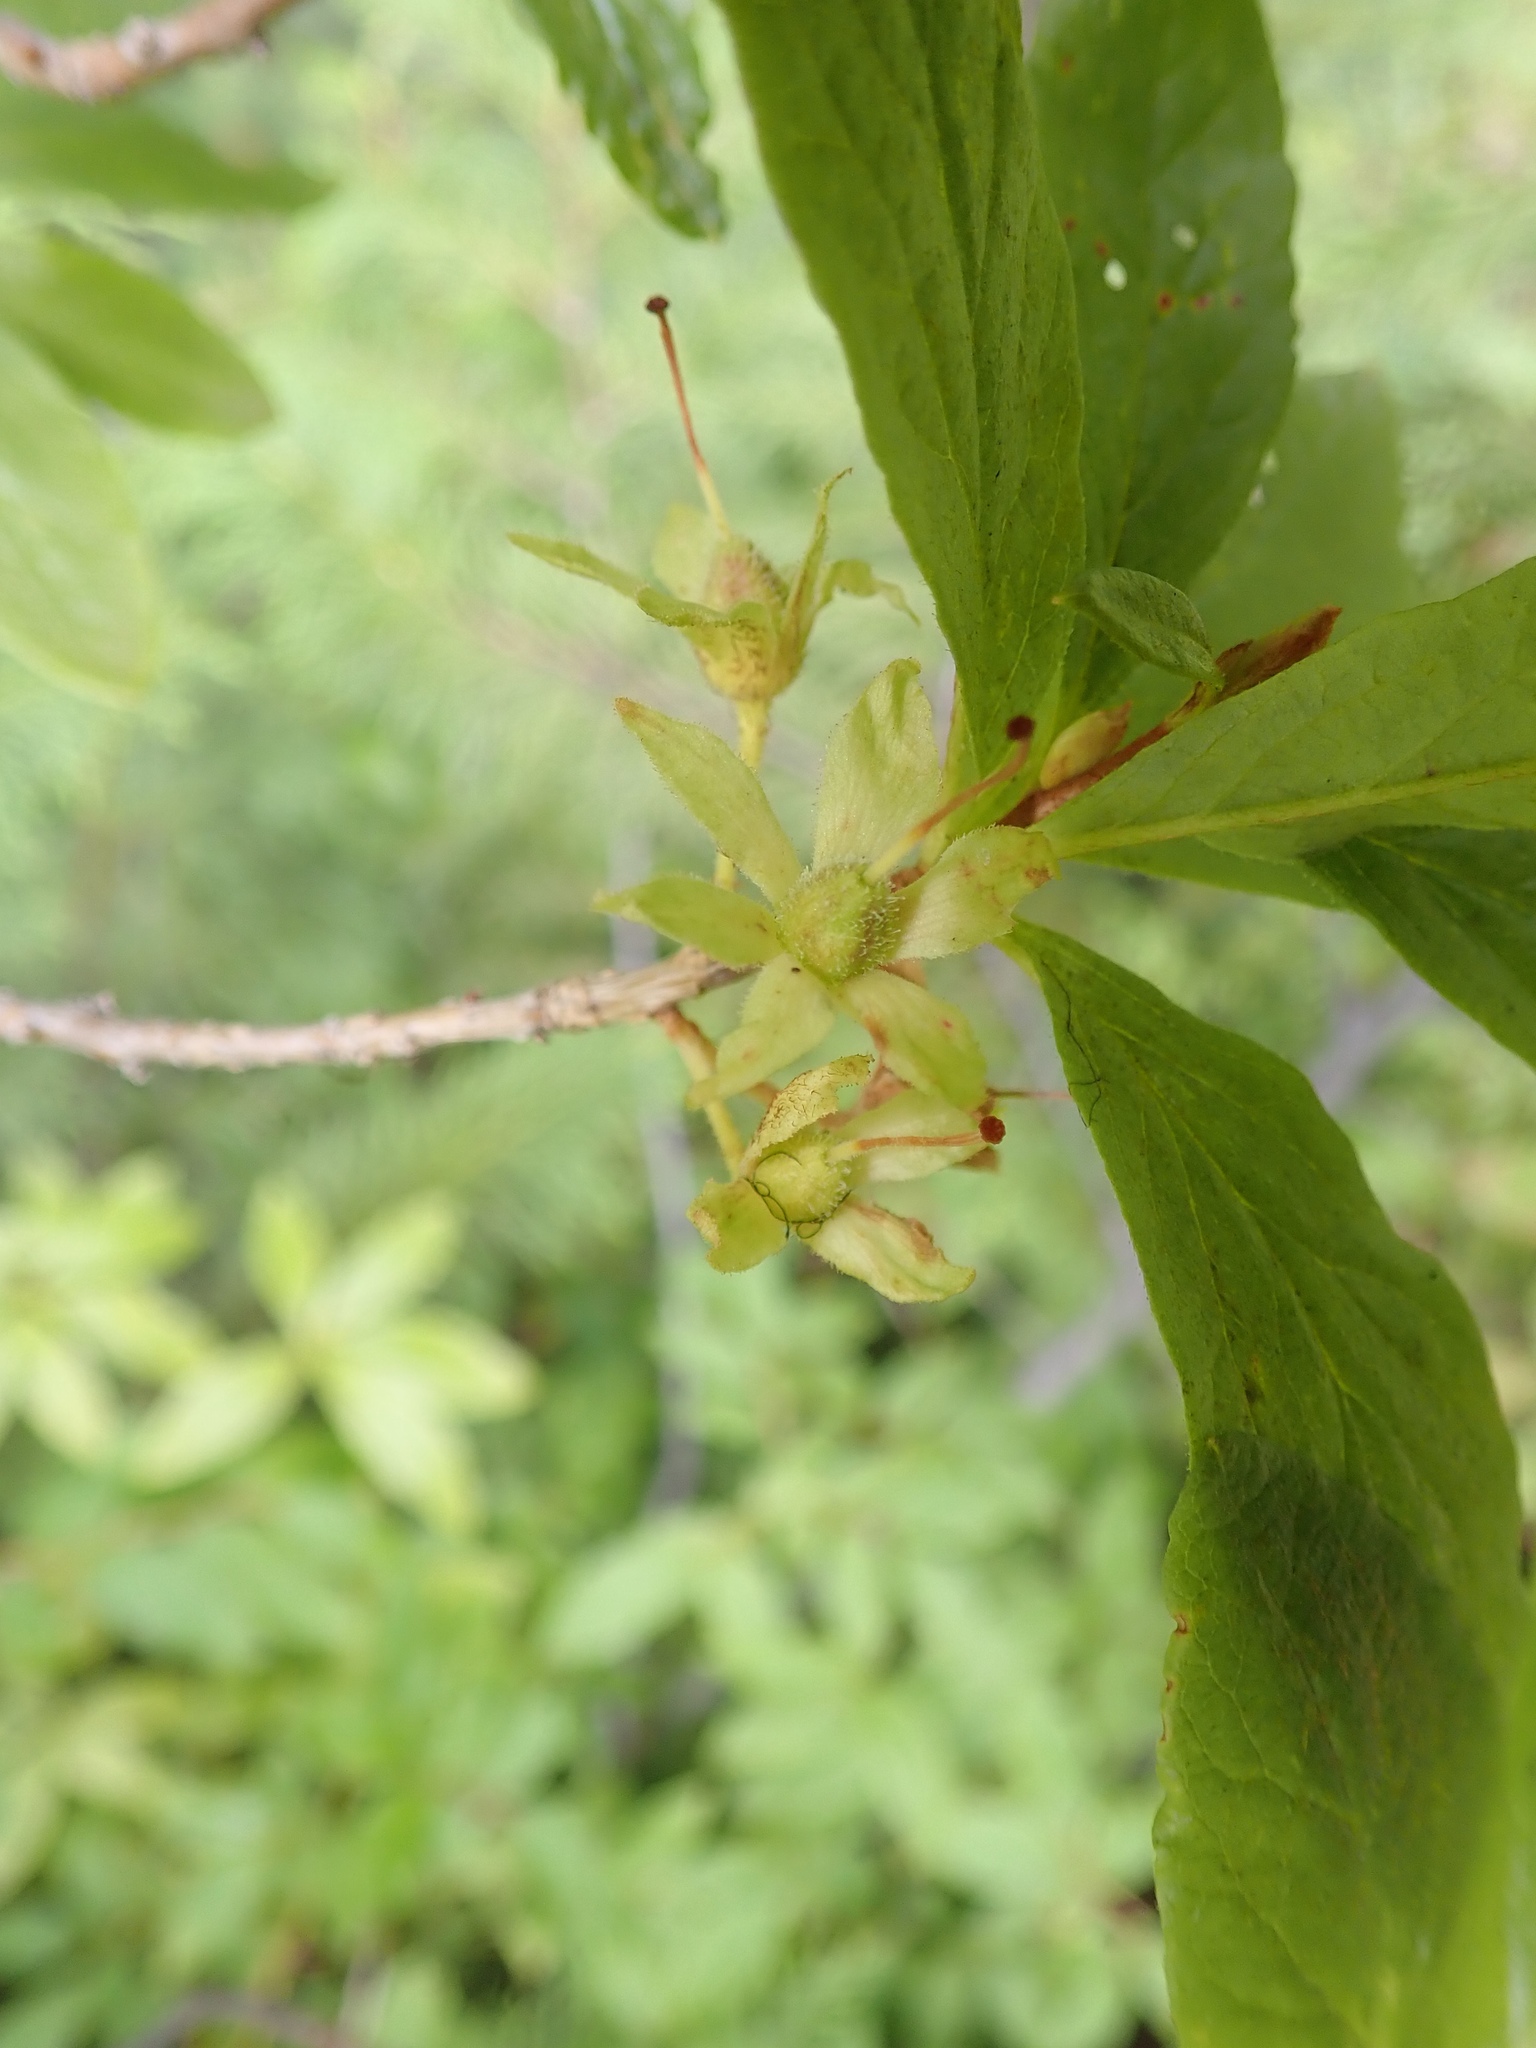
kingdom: Plantae
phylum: Tracheophyta
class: Magnoliopsida
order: Ericales
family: Ericaceae
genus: Rhododendron
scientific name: Rhododendron albiflorum
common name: White rhododendron
